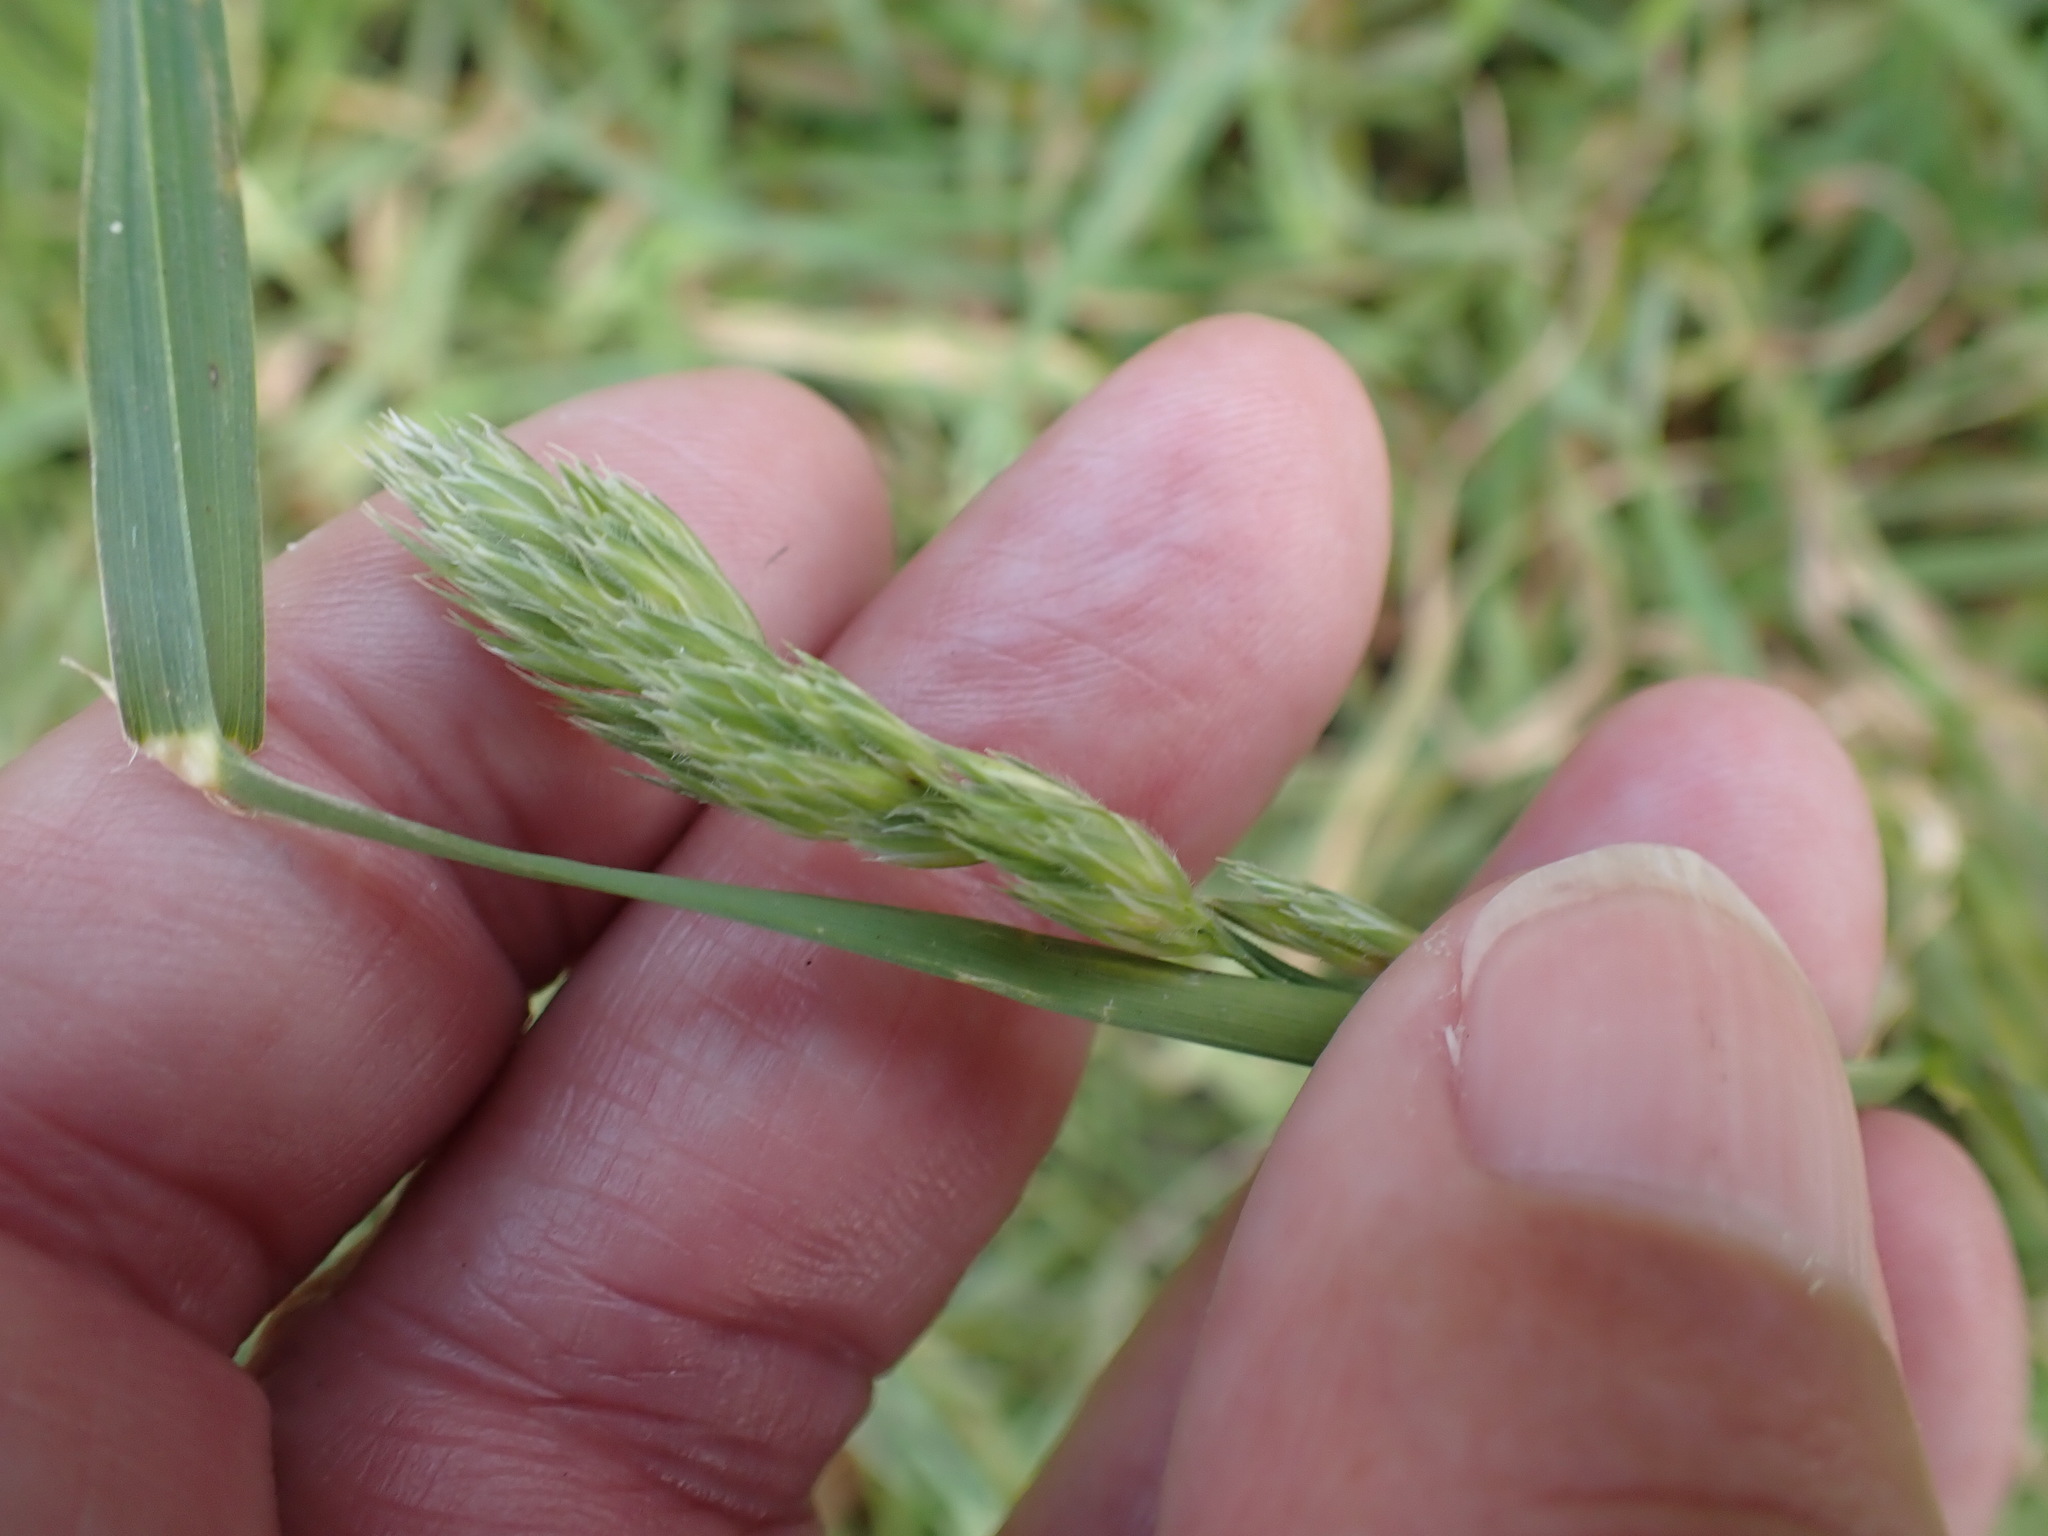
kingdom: Plantae
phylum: Tracheophyta
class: Liliopsida
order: Poales
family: Poaceae
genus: Dactylis
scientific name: Dactylis glomerata
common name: Orchardgrass
